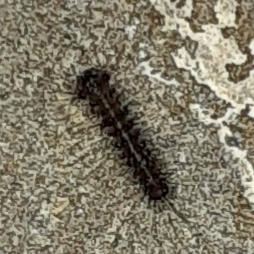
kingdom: Animalia
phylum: Arthropoda
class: Insecta
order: Lepidoptera
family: Erebidae
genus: Lymantria
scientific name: Lymantria dispar
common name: Gypsy moth
